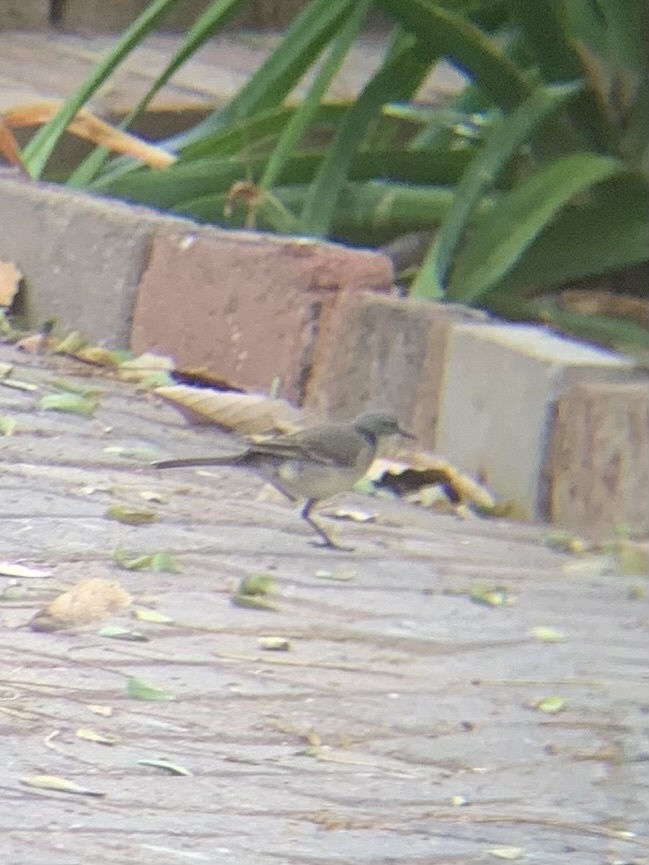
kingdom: Animalia
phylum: Chordata
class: Aves
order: Passeriformes
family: Motacillidae
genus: Motacilla
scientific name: Motacilla capensis
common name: Cape wagtail
